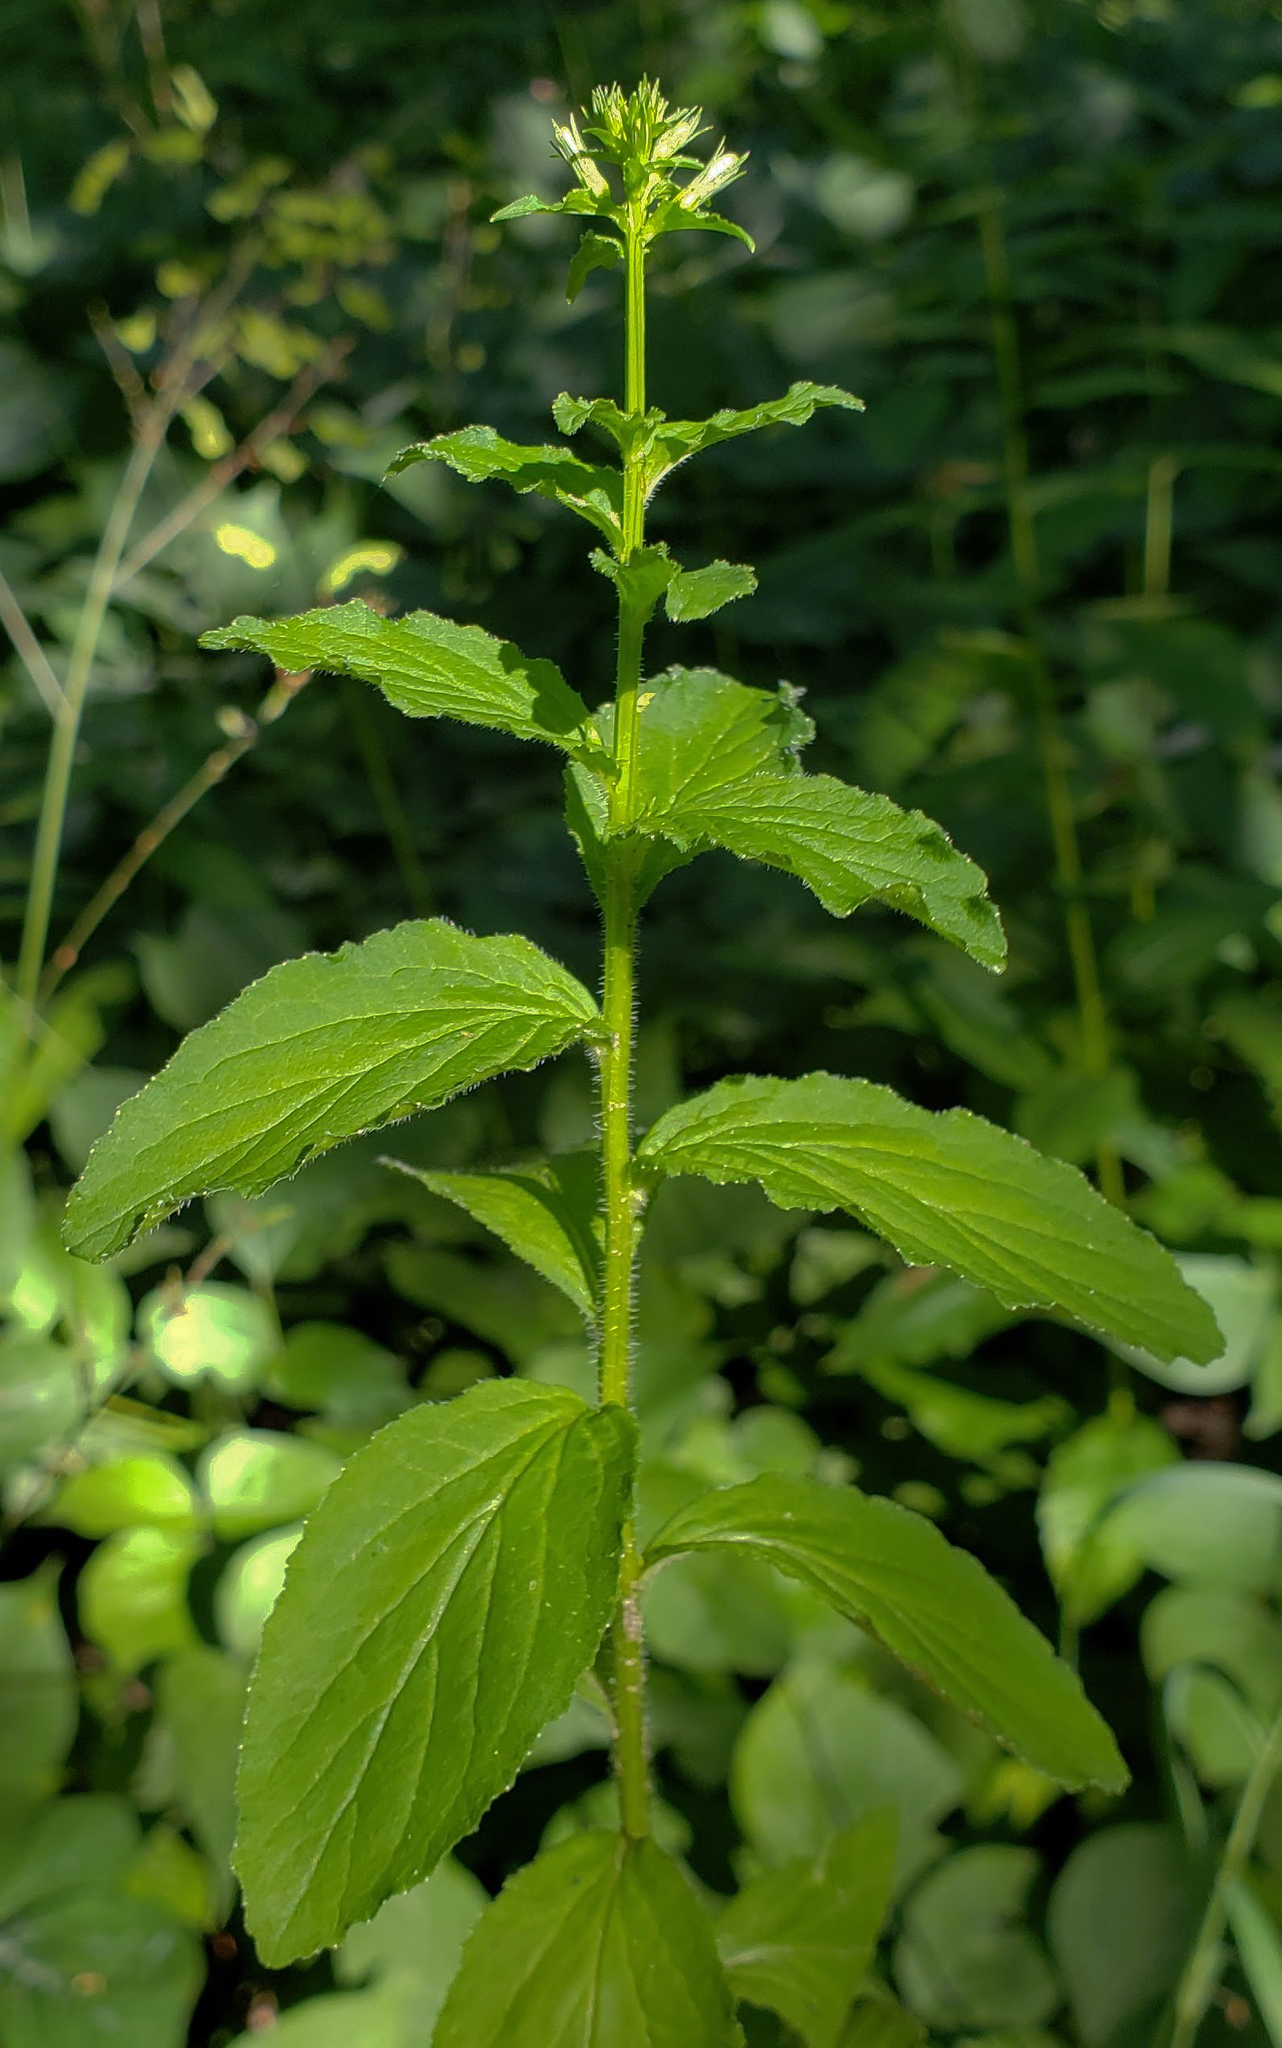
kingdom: Plantae
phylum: Tracheophyta
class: Magnoliopsida
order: Asterales
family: Campanulaceae
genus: Lobelia
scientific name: Lobelia inflata
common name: Indian tobacco
